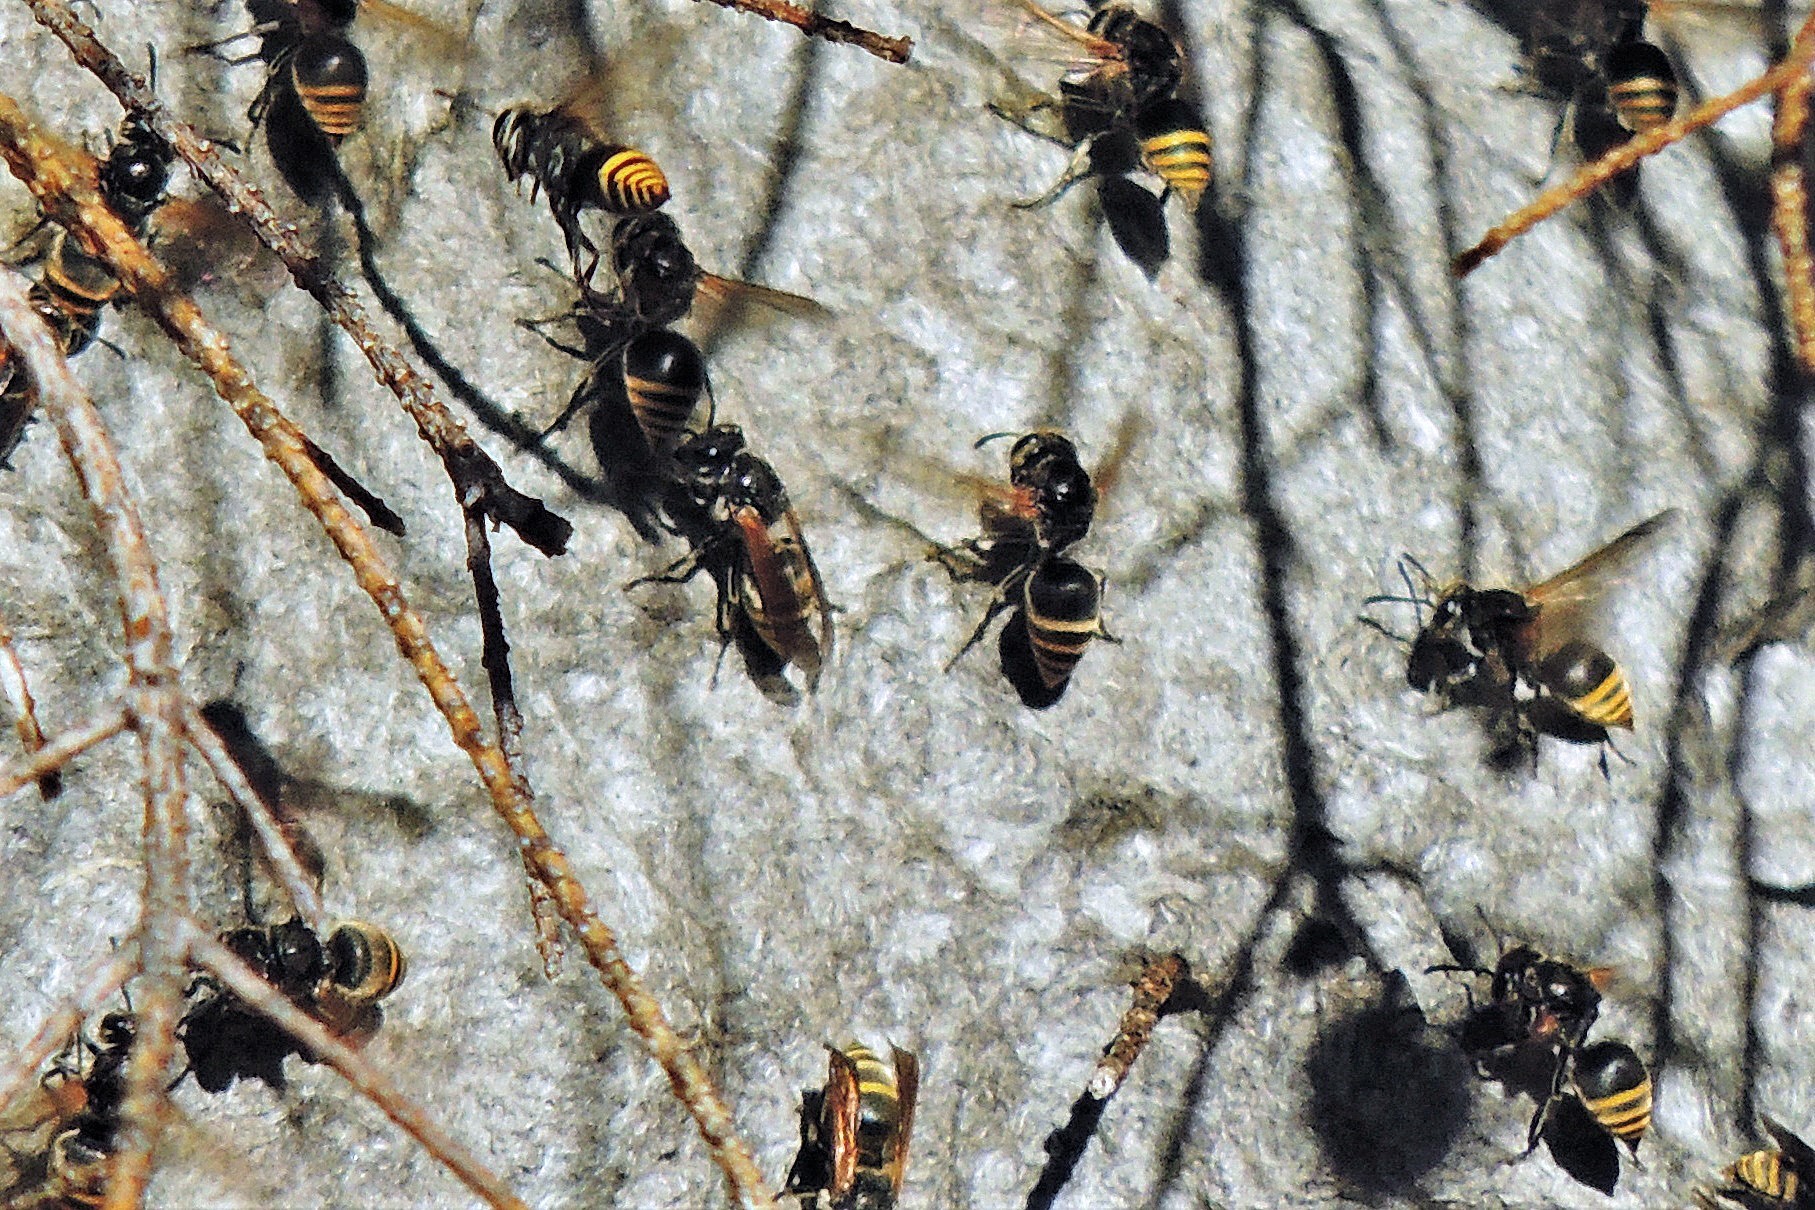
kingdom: Animalia
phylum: Arthropoda
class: Insecta
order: Hymenoptera
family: Vespidae
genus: Brachygastra
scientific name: Brachygastra lecheguana
